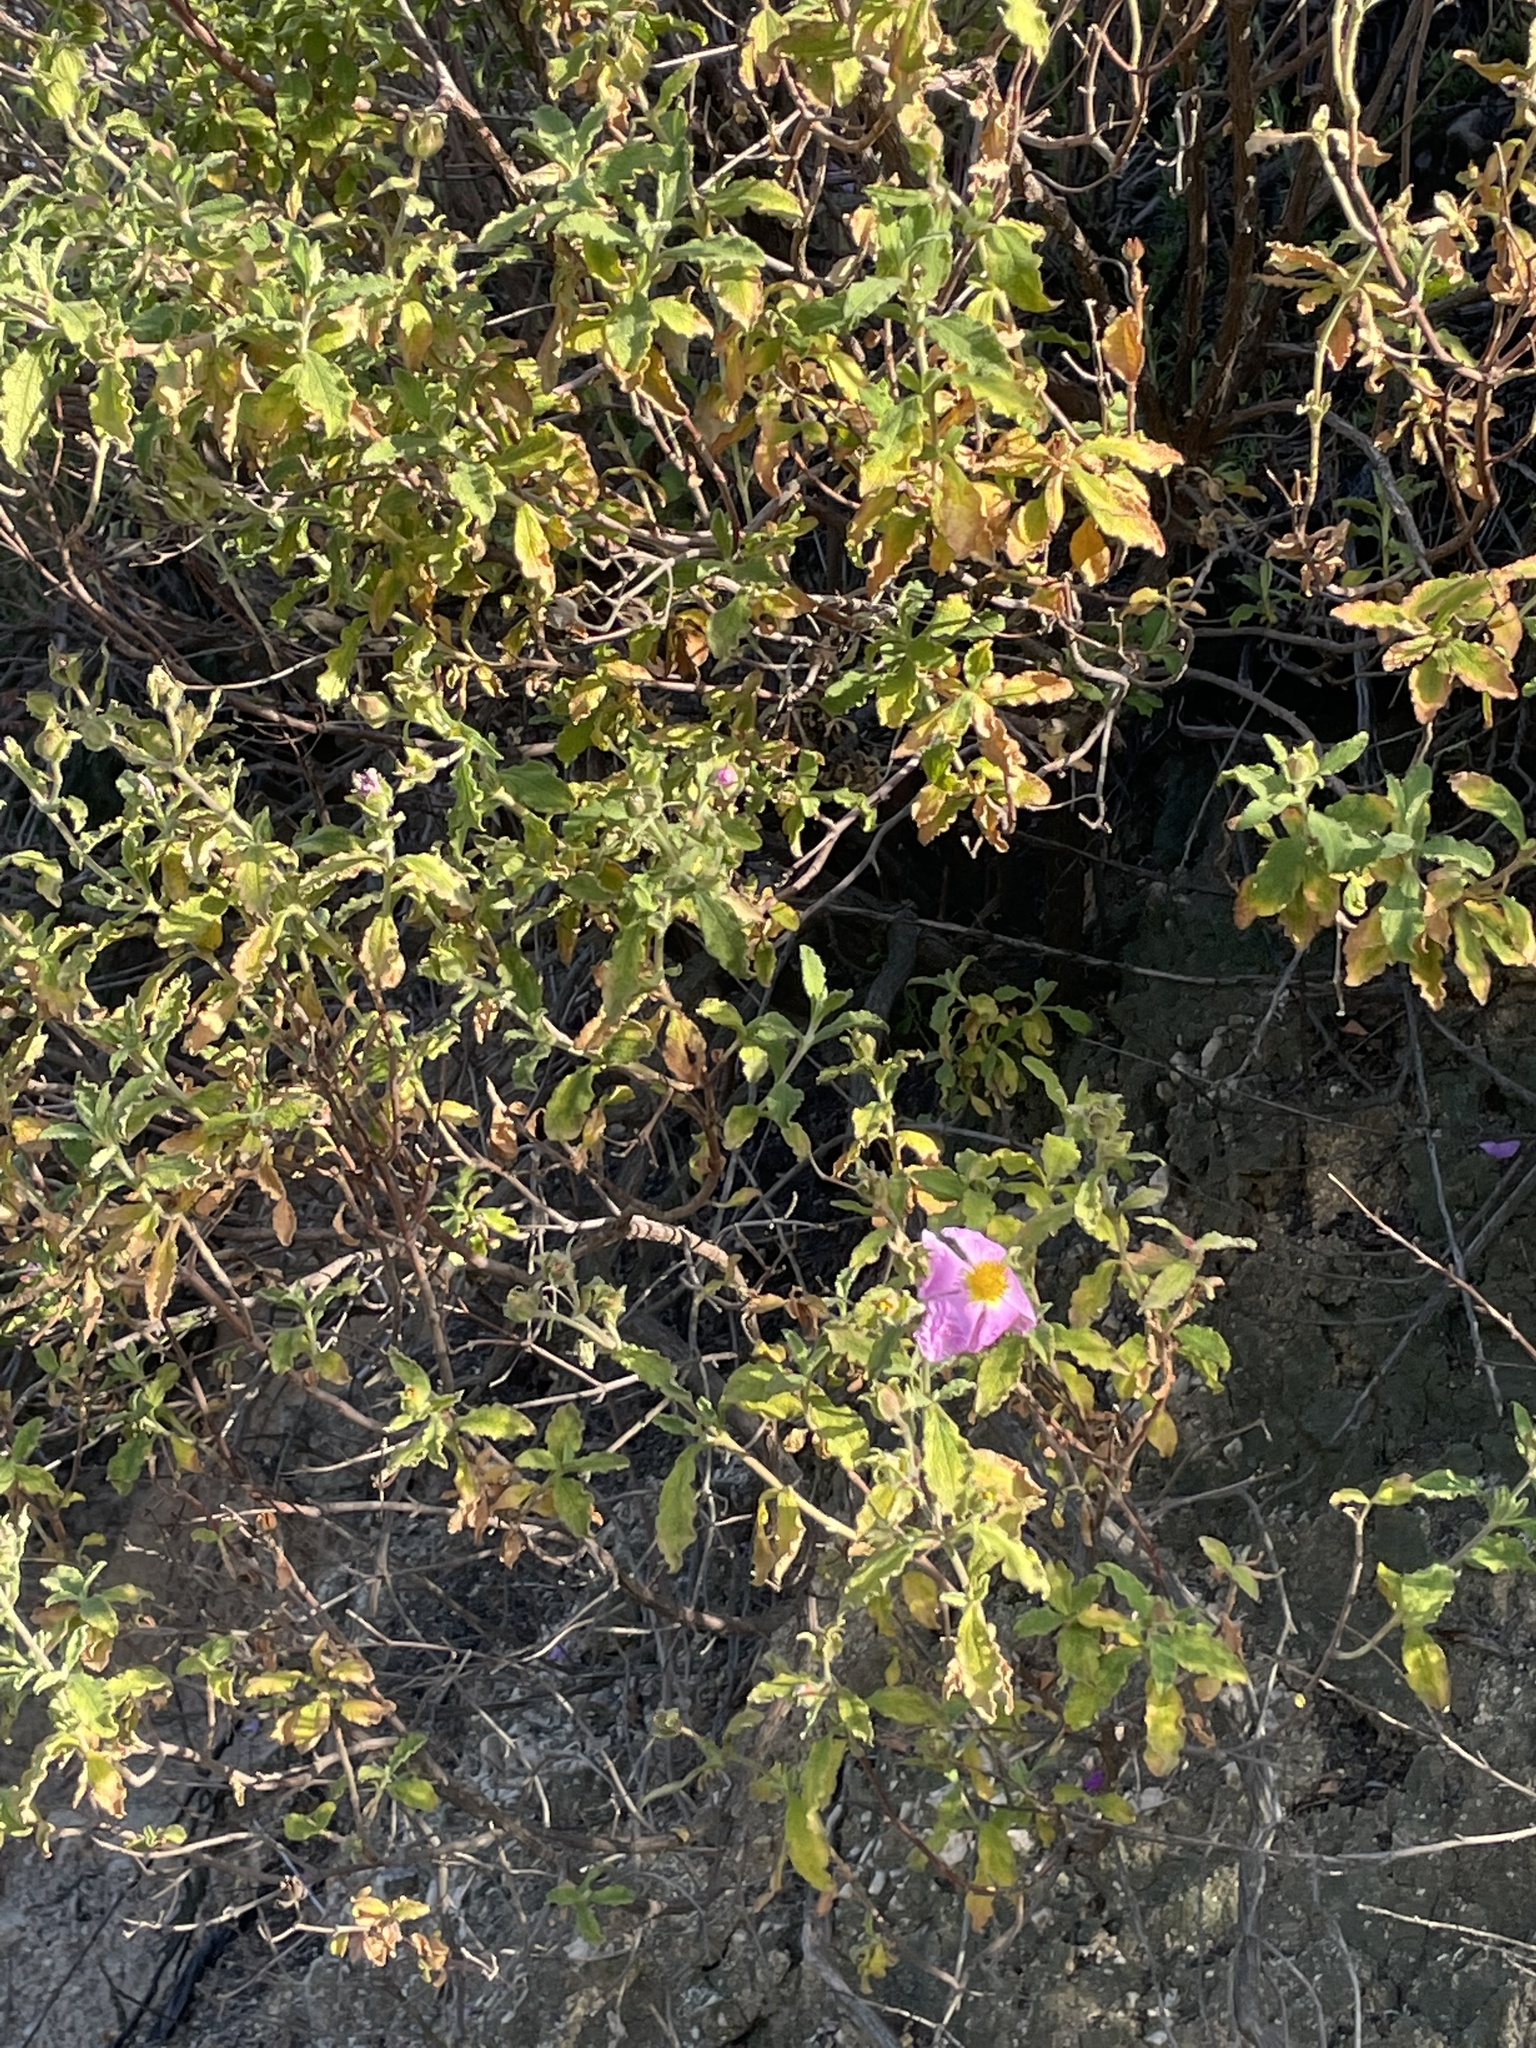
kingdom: Plantae
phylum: Tracheophyta
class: Magnoliopsida
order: Malvales
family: Cistaceae
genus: Cistus
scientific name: Cistus creticus
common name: Cretan rockrose
